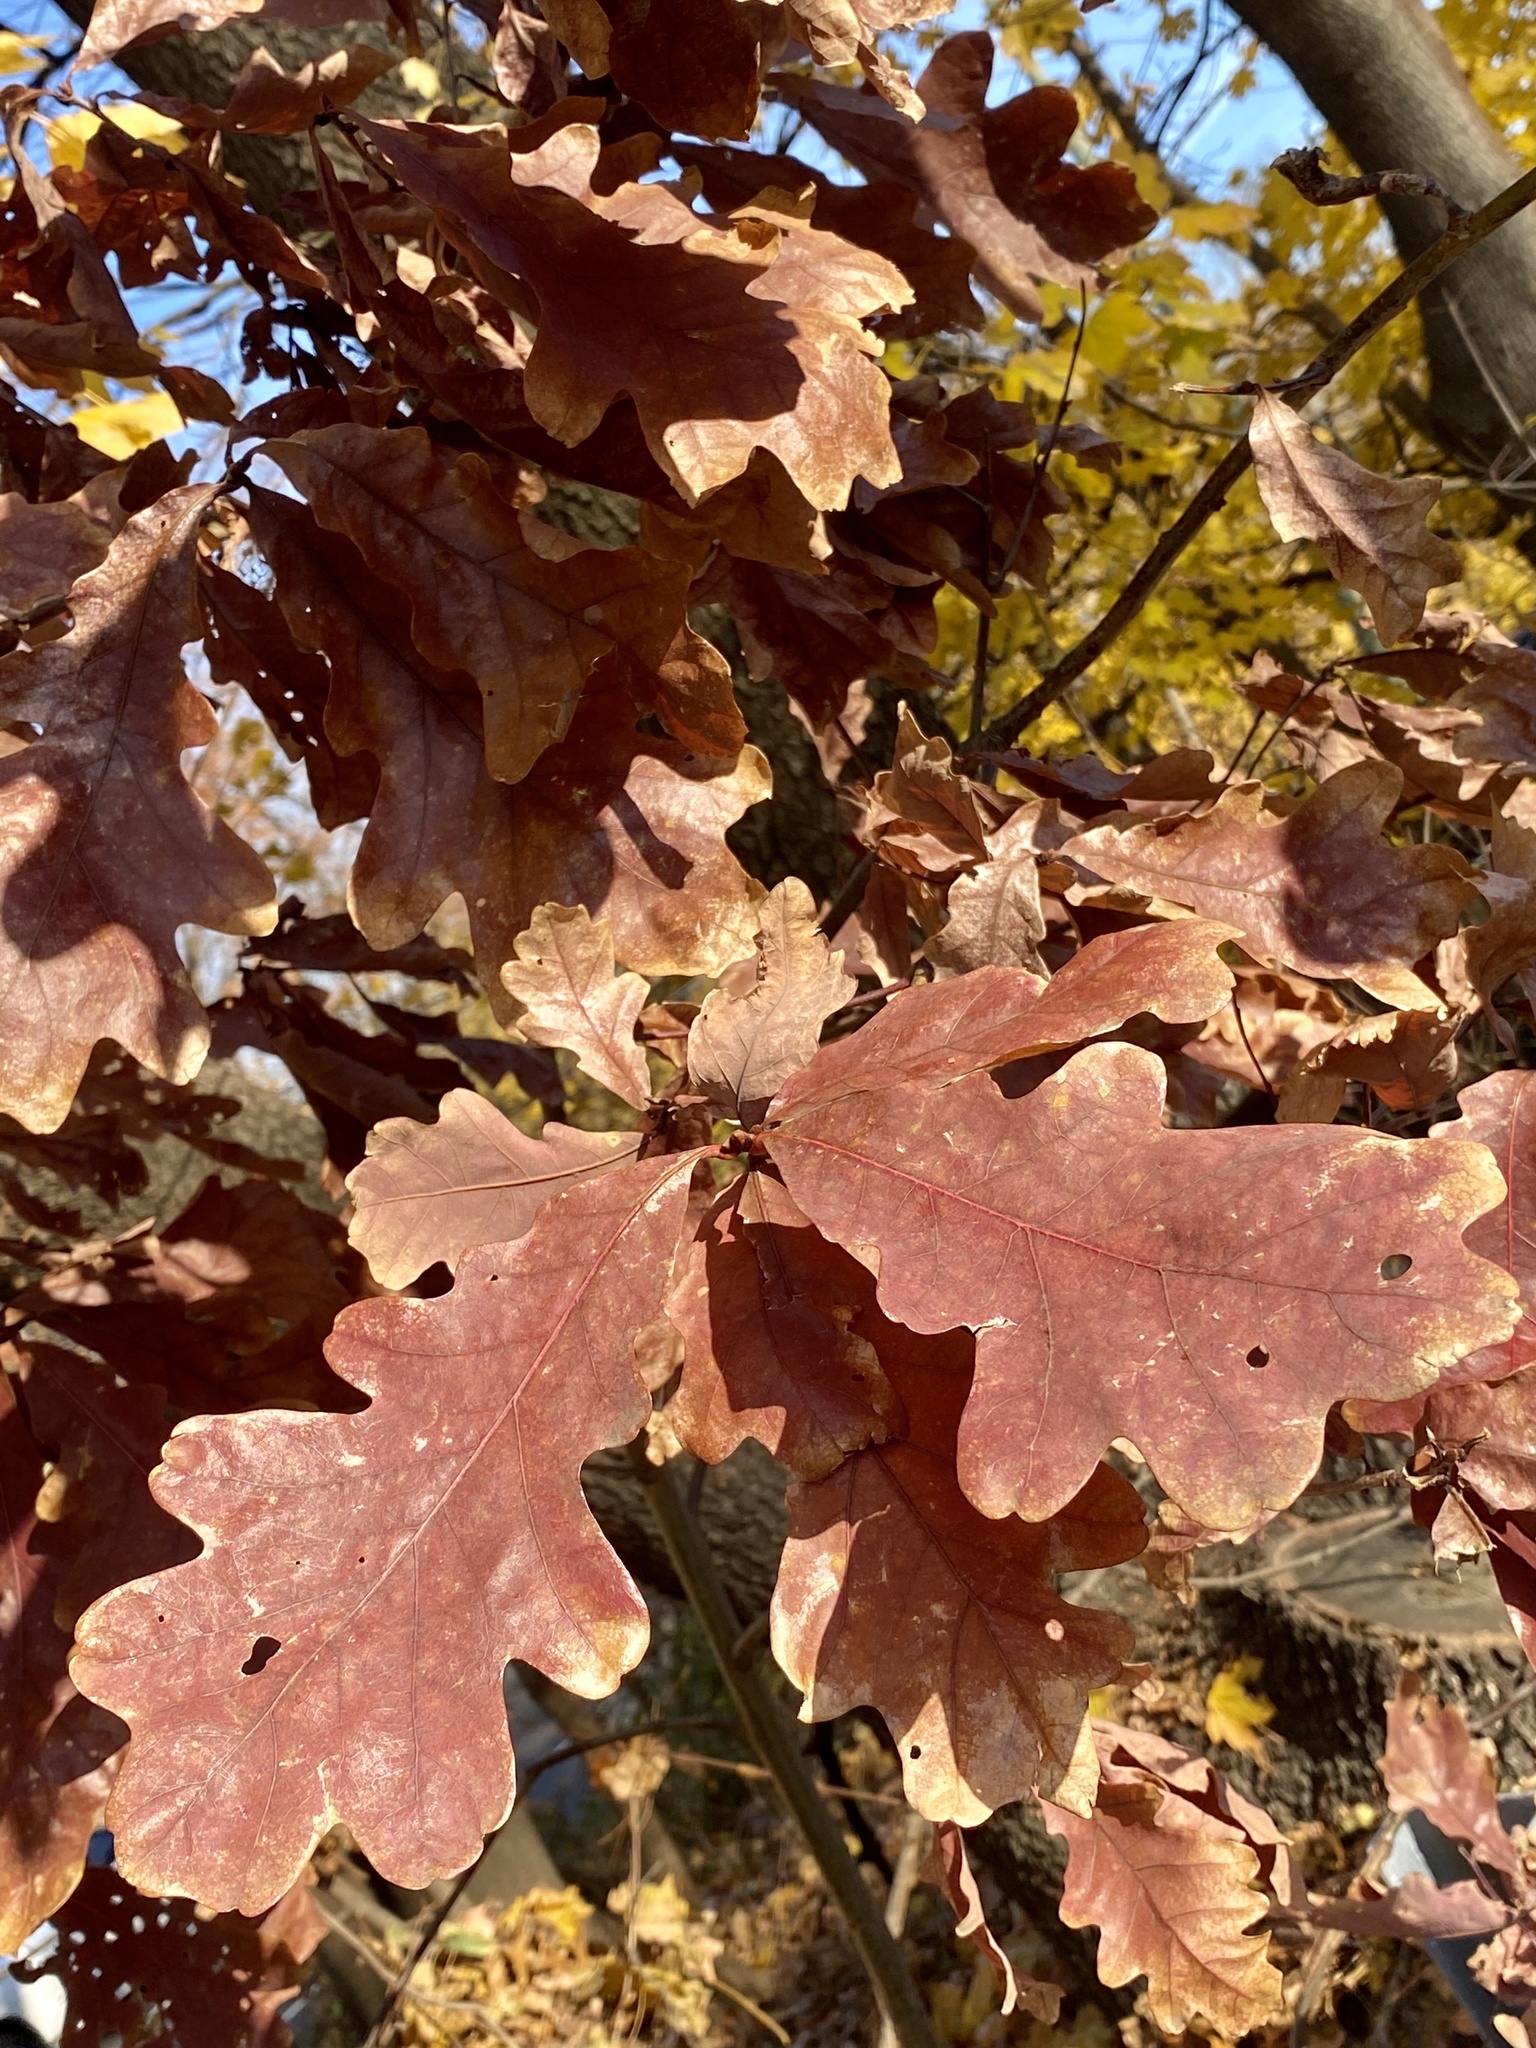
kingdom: Plantae
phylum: Tracheophyta
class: Magnoliopsida
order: Fagales
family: Fagaceae
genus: Quercus
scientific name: Quercus alba
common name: White oak
